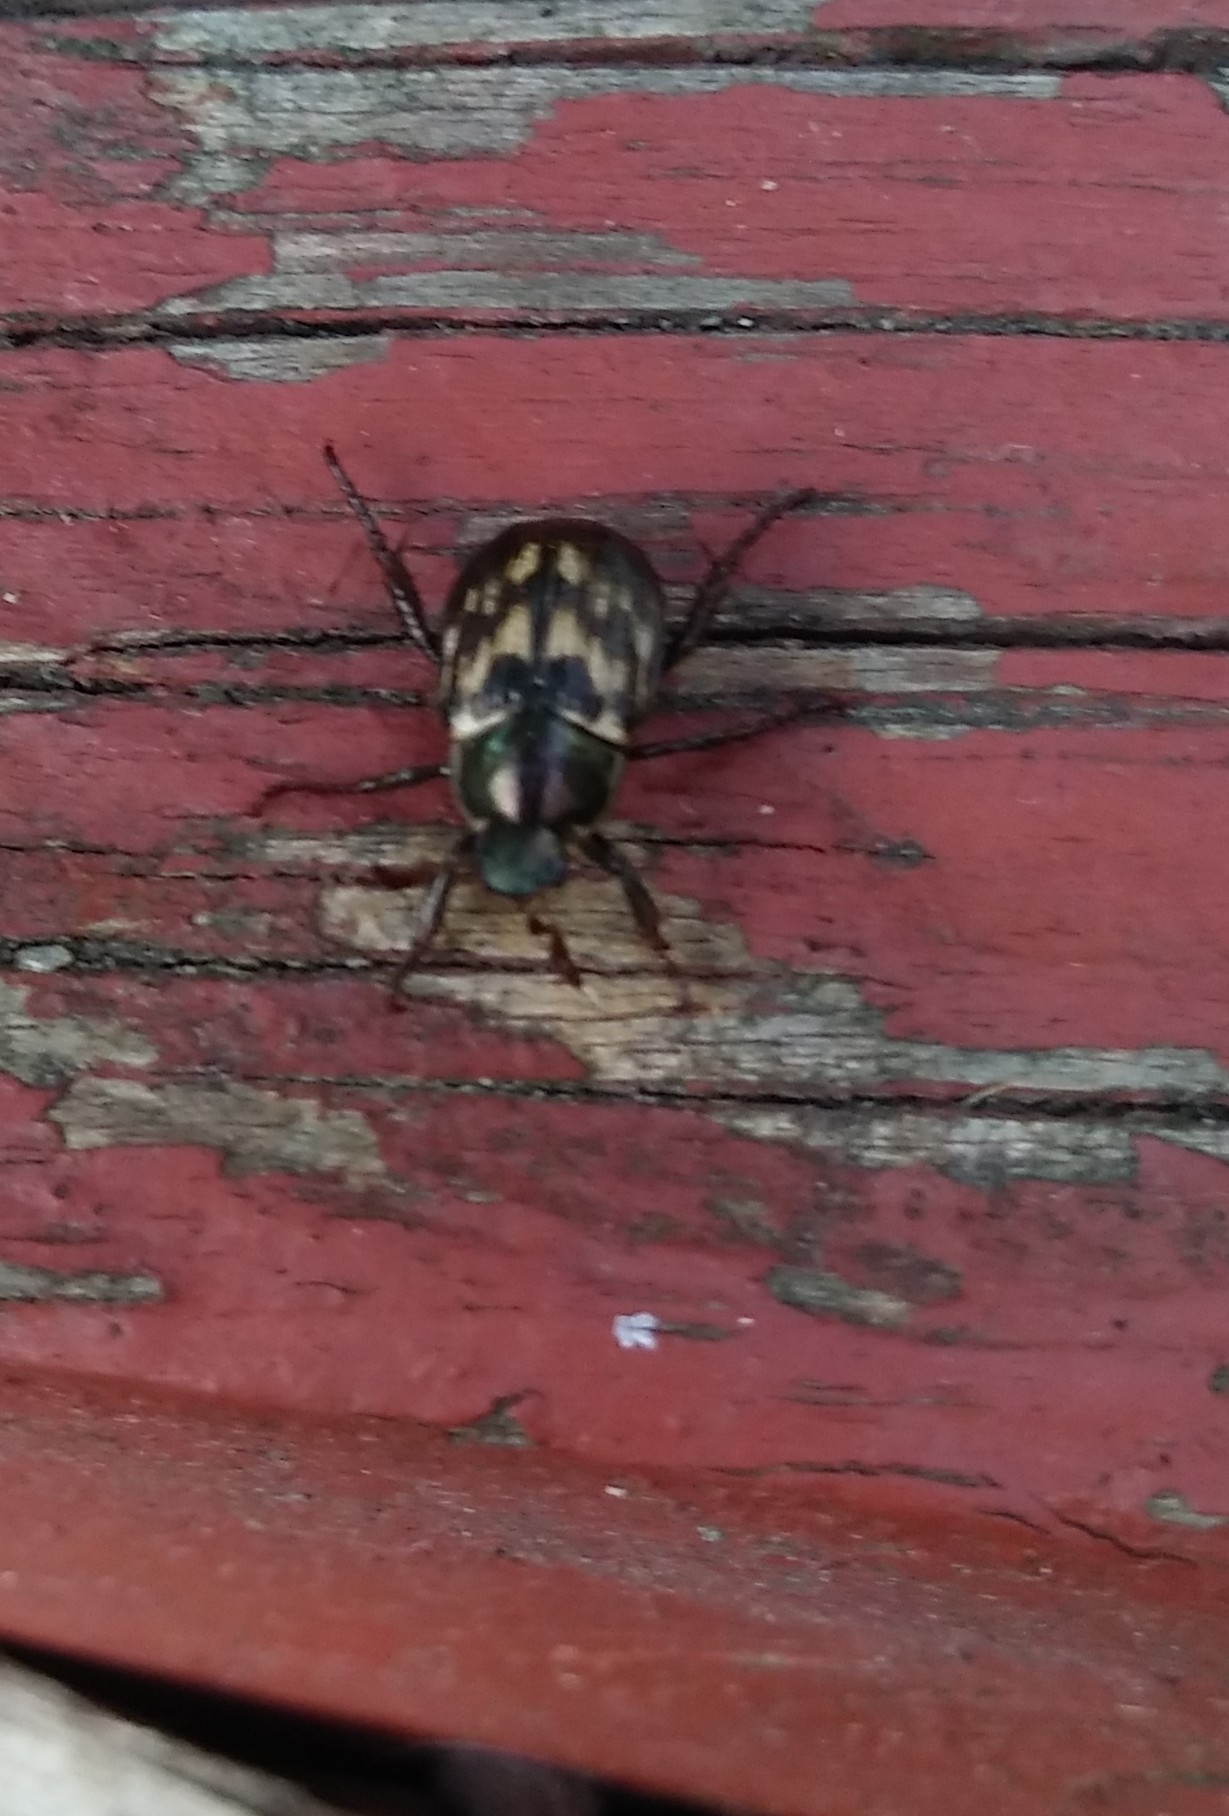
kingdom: Animalia
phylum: Arthropoda
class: Insecta
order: Coleoptera
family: Scarabaeidae
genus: Exomala
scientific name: Exomala orientalis
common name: Oriental beetle
